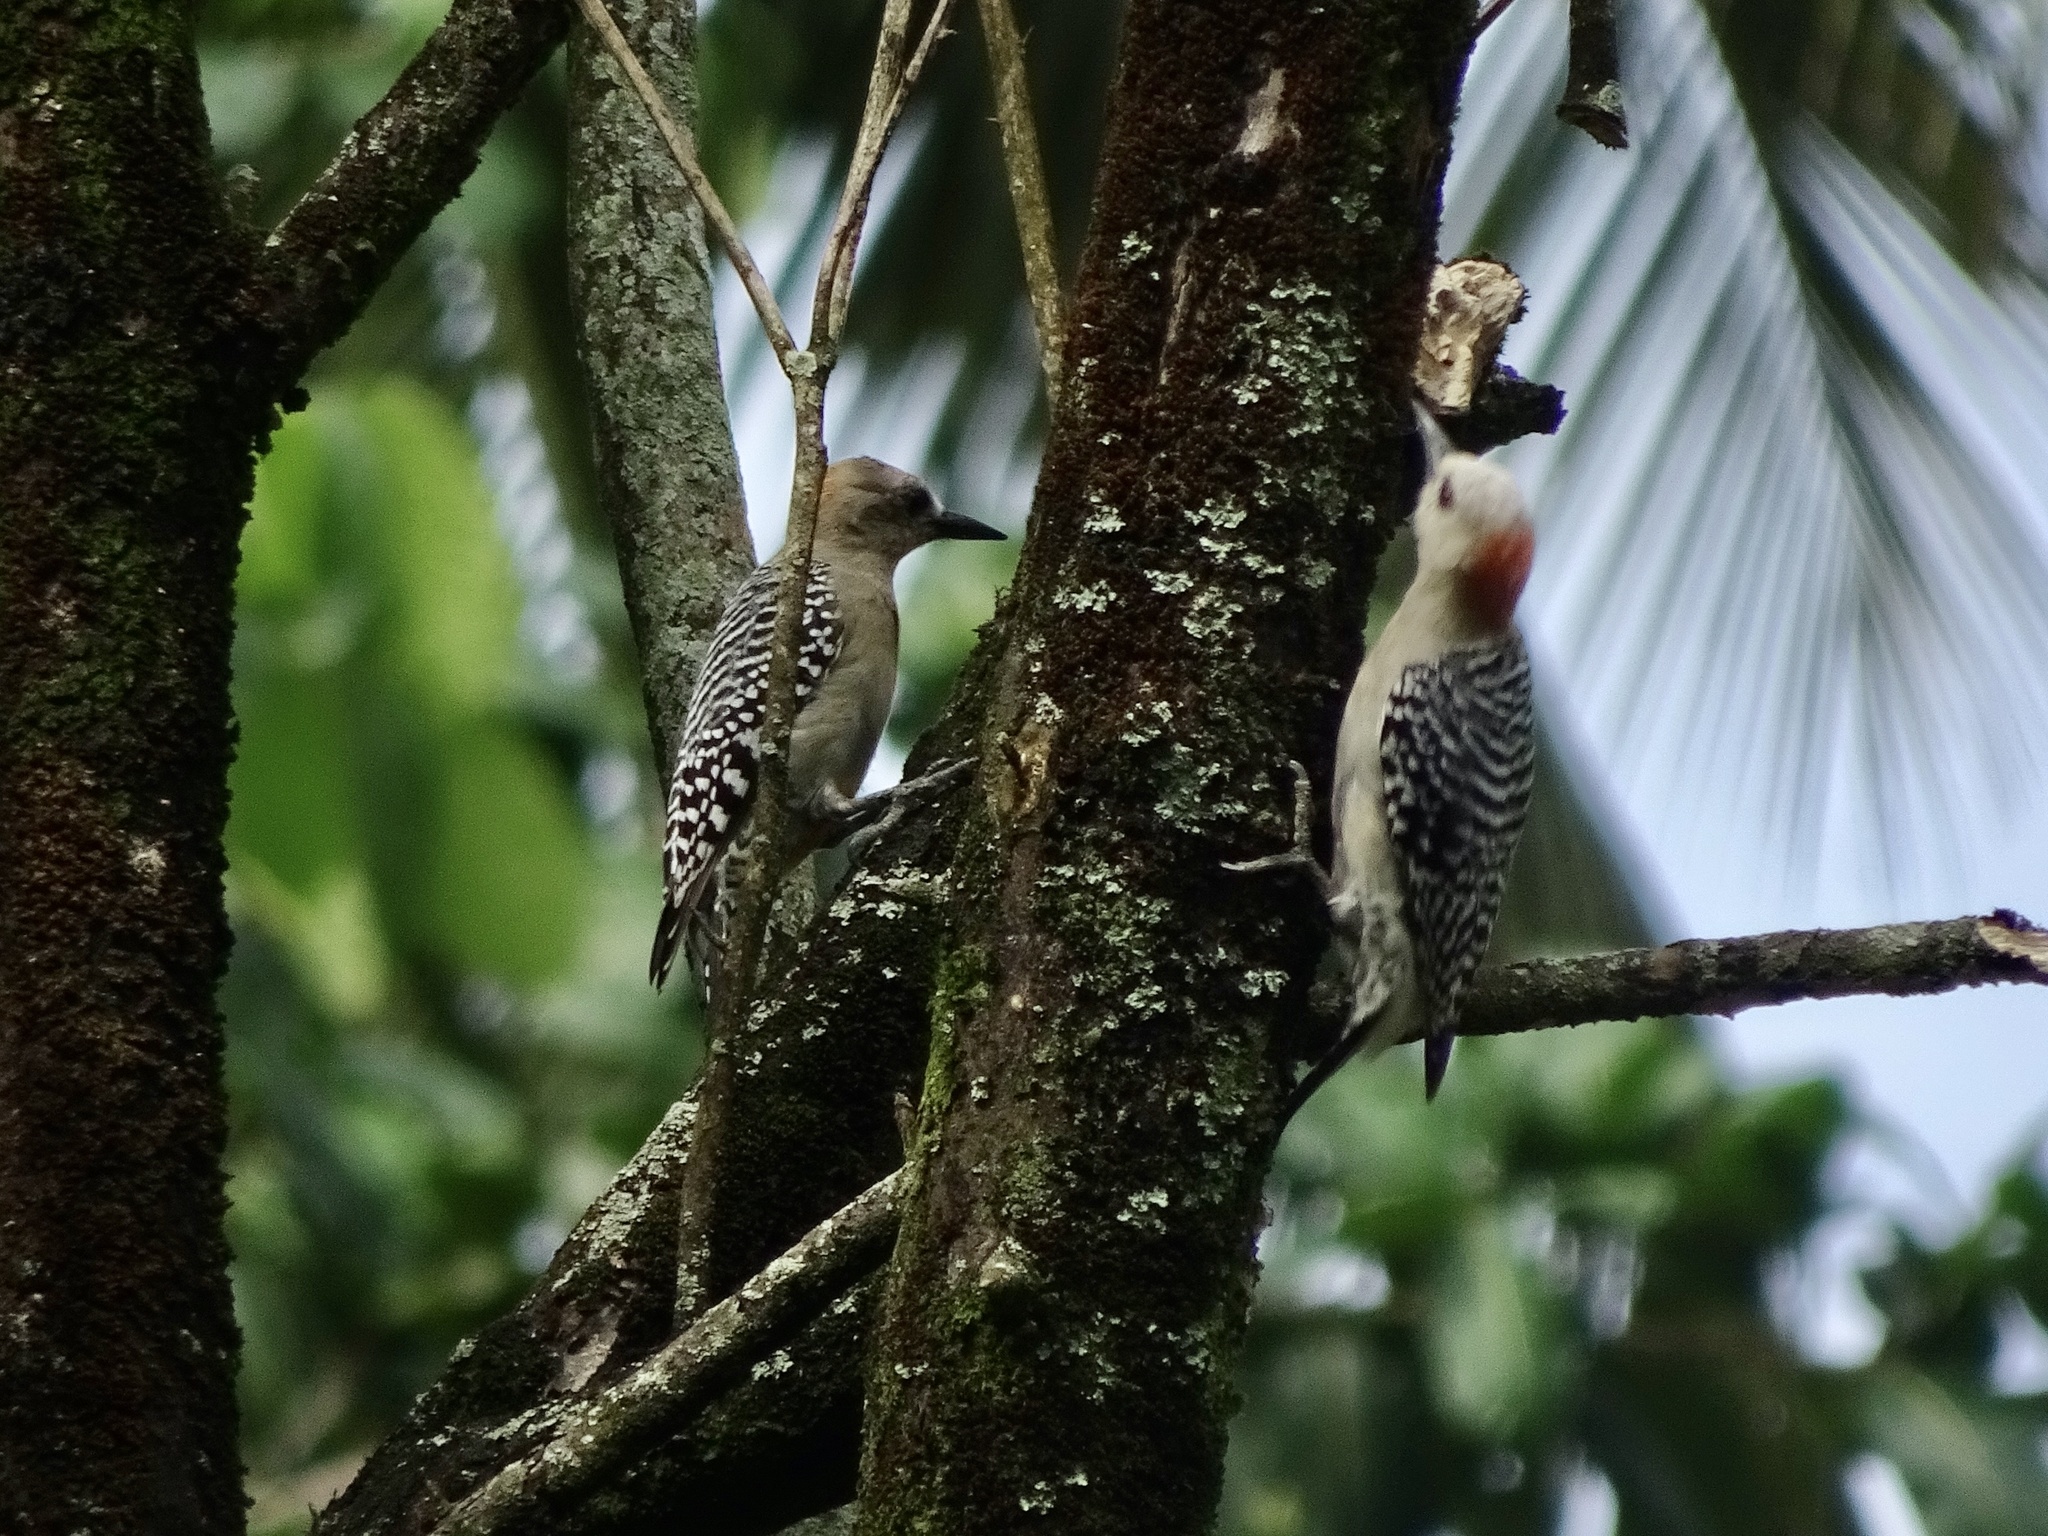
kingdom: Animalia
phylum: Chordata
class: Aves
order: Piciformes
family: Picidae
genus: Melanerpes
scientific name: Melanerpes rubricapillus
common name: Red-crowned woodpecker
